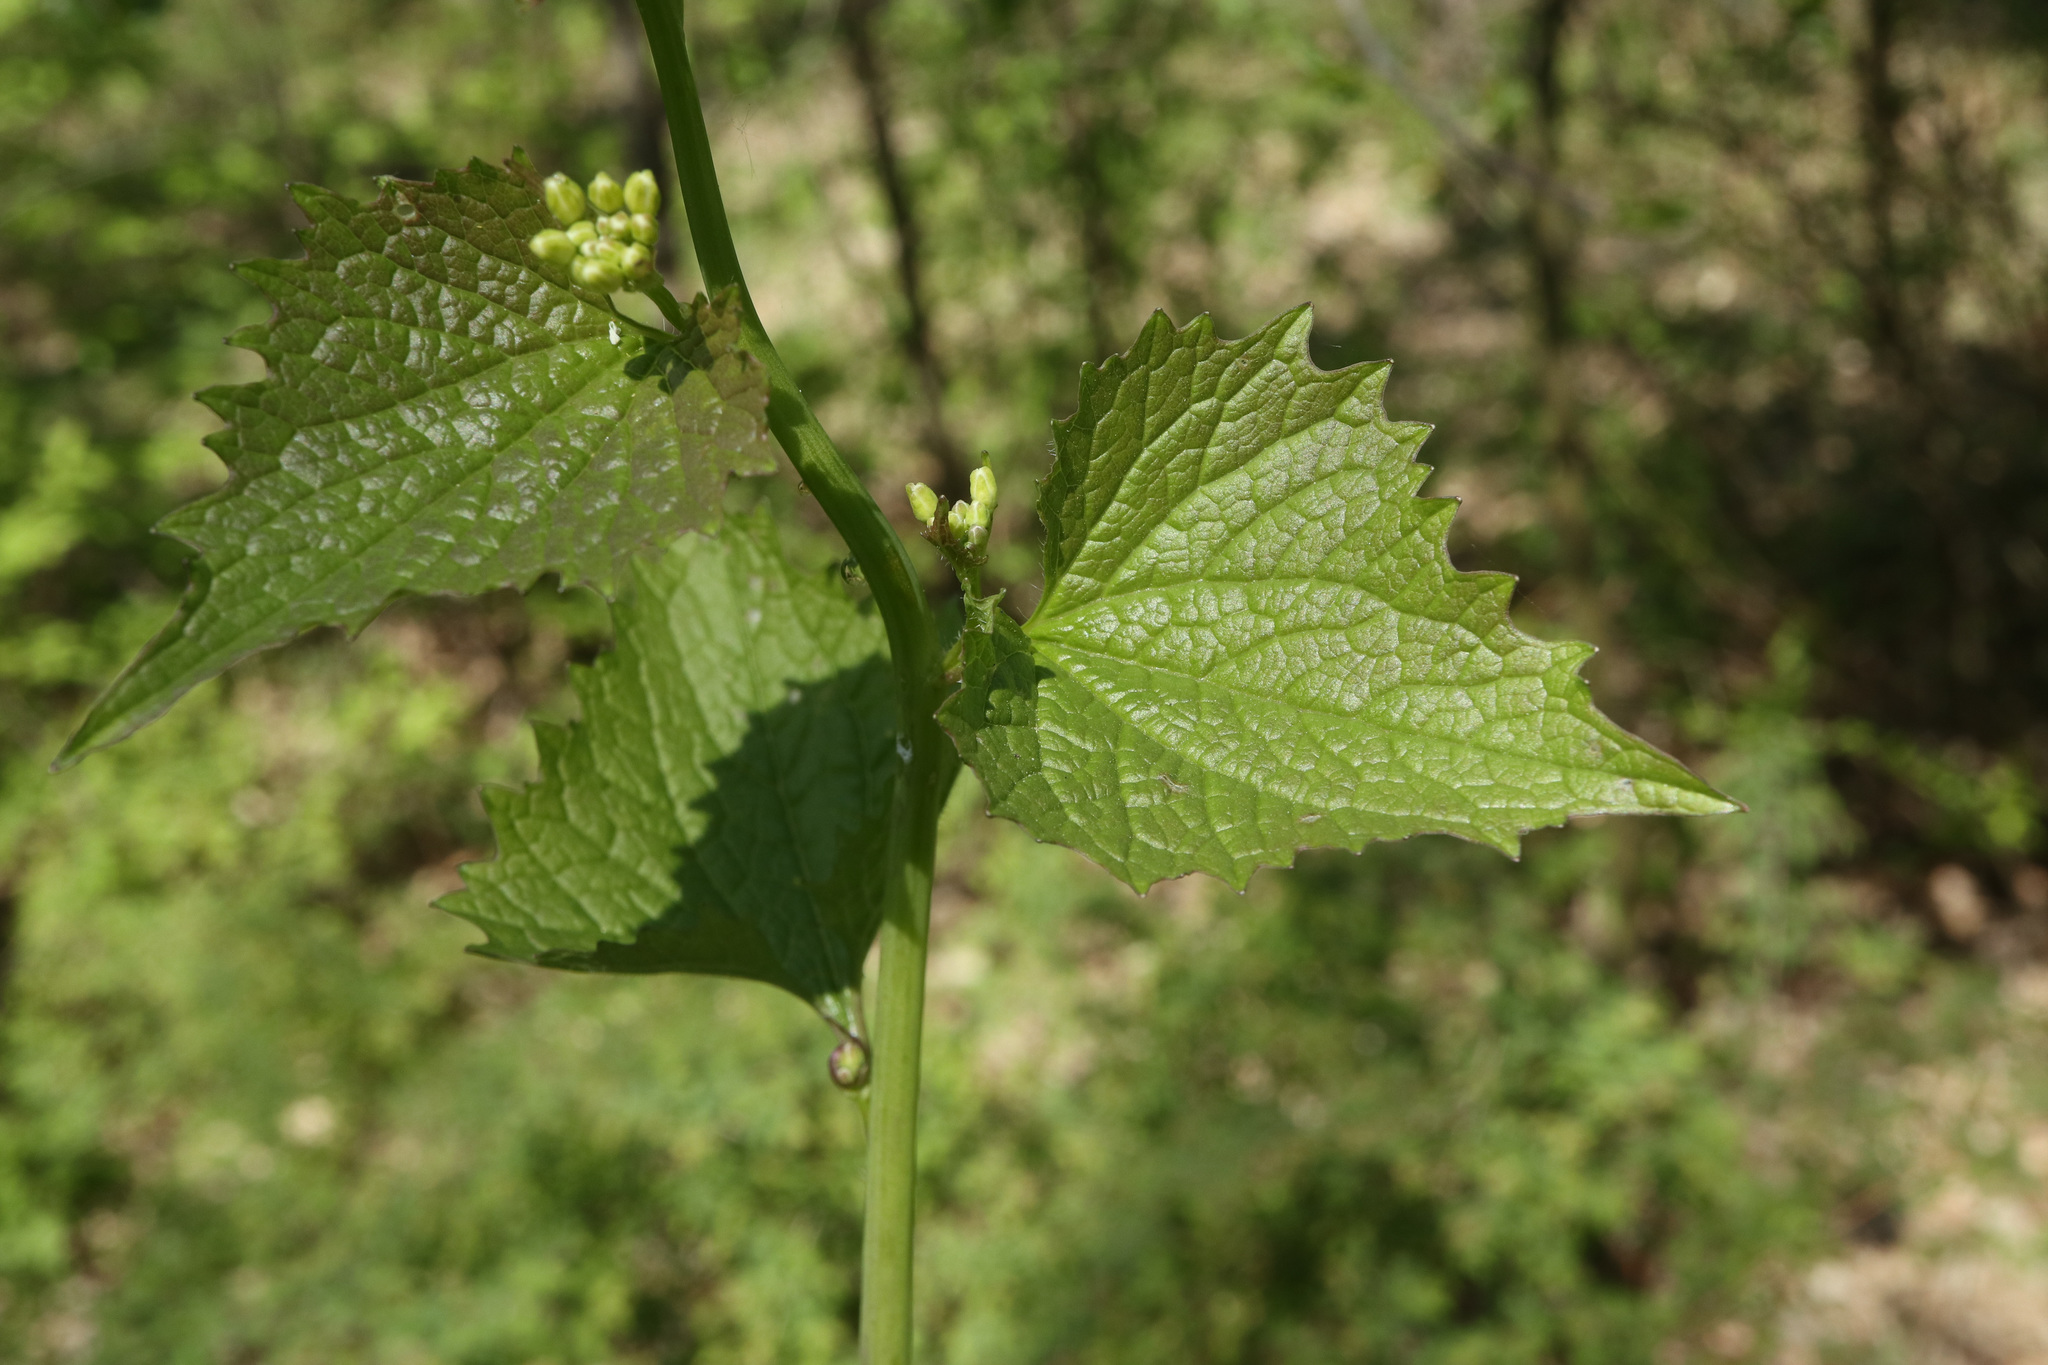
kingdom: Plantae
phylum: Tracheophyta
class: Magnoliopsida
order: Brassicales
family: Brassicaceae
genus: Alliaria
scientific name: Alliaria petiolata
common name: Garlic mustard
